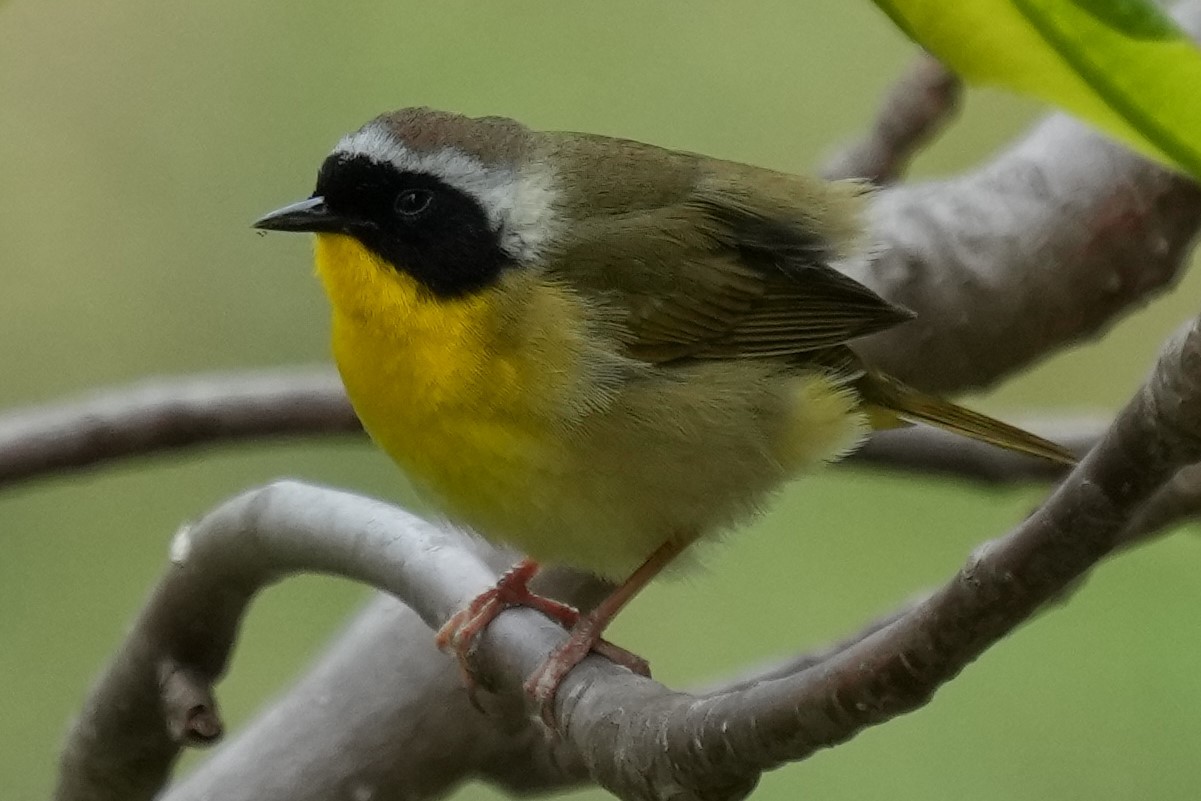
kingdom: Animalia
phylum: Chordata
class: Aves
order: Passeriformes
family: Parulidae
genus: Geothlypis
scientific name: Geothlypis trichas
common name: Common yellowthroat
